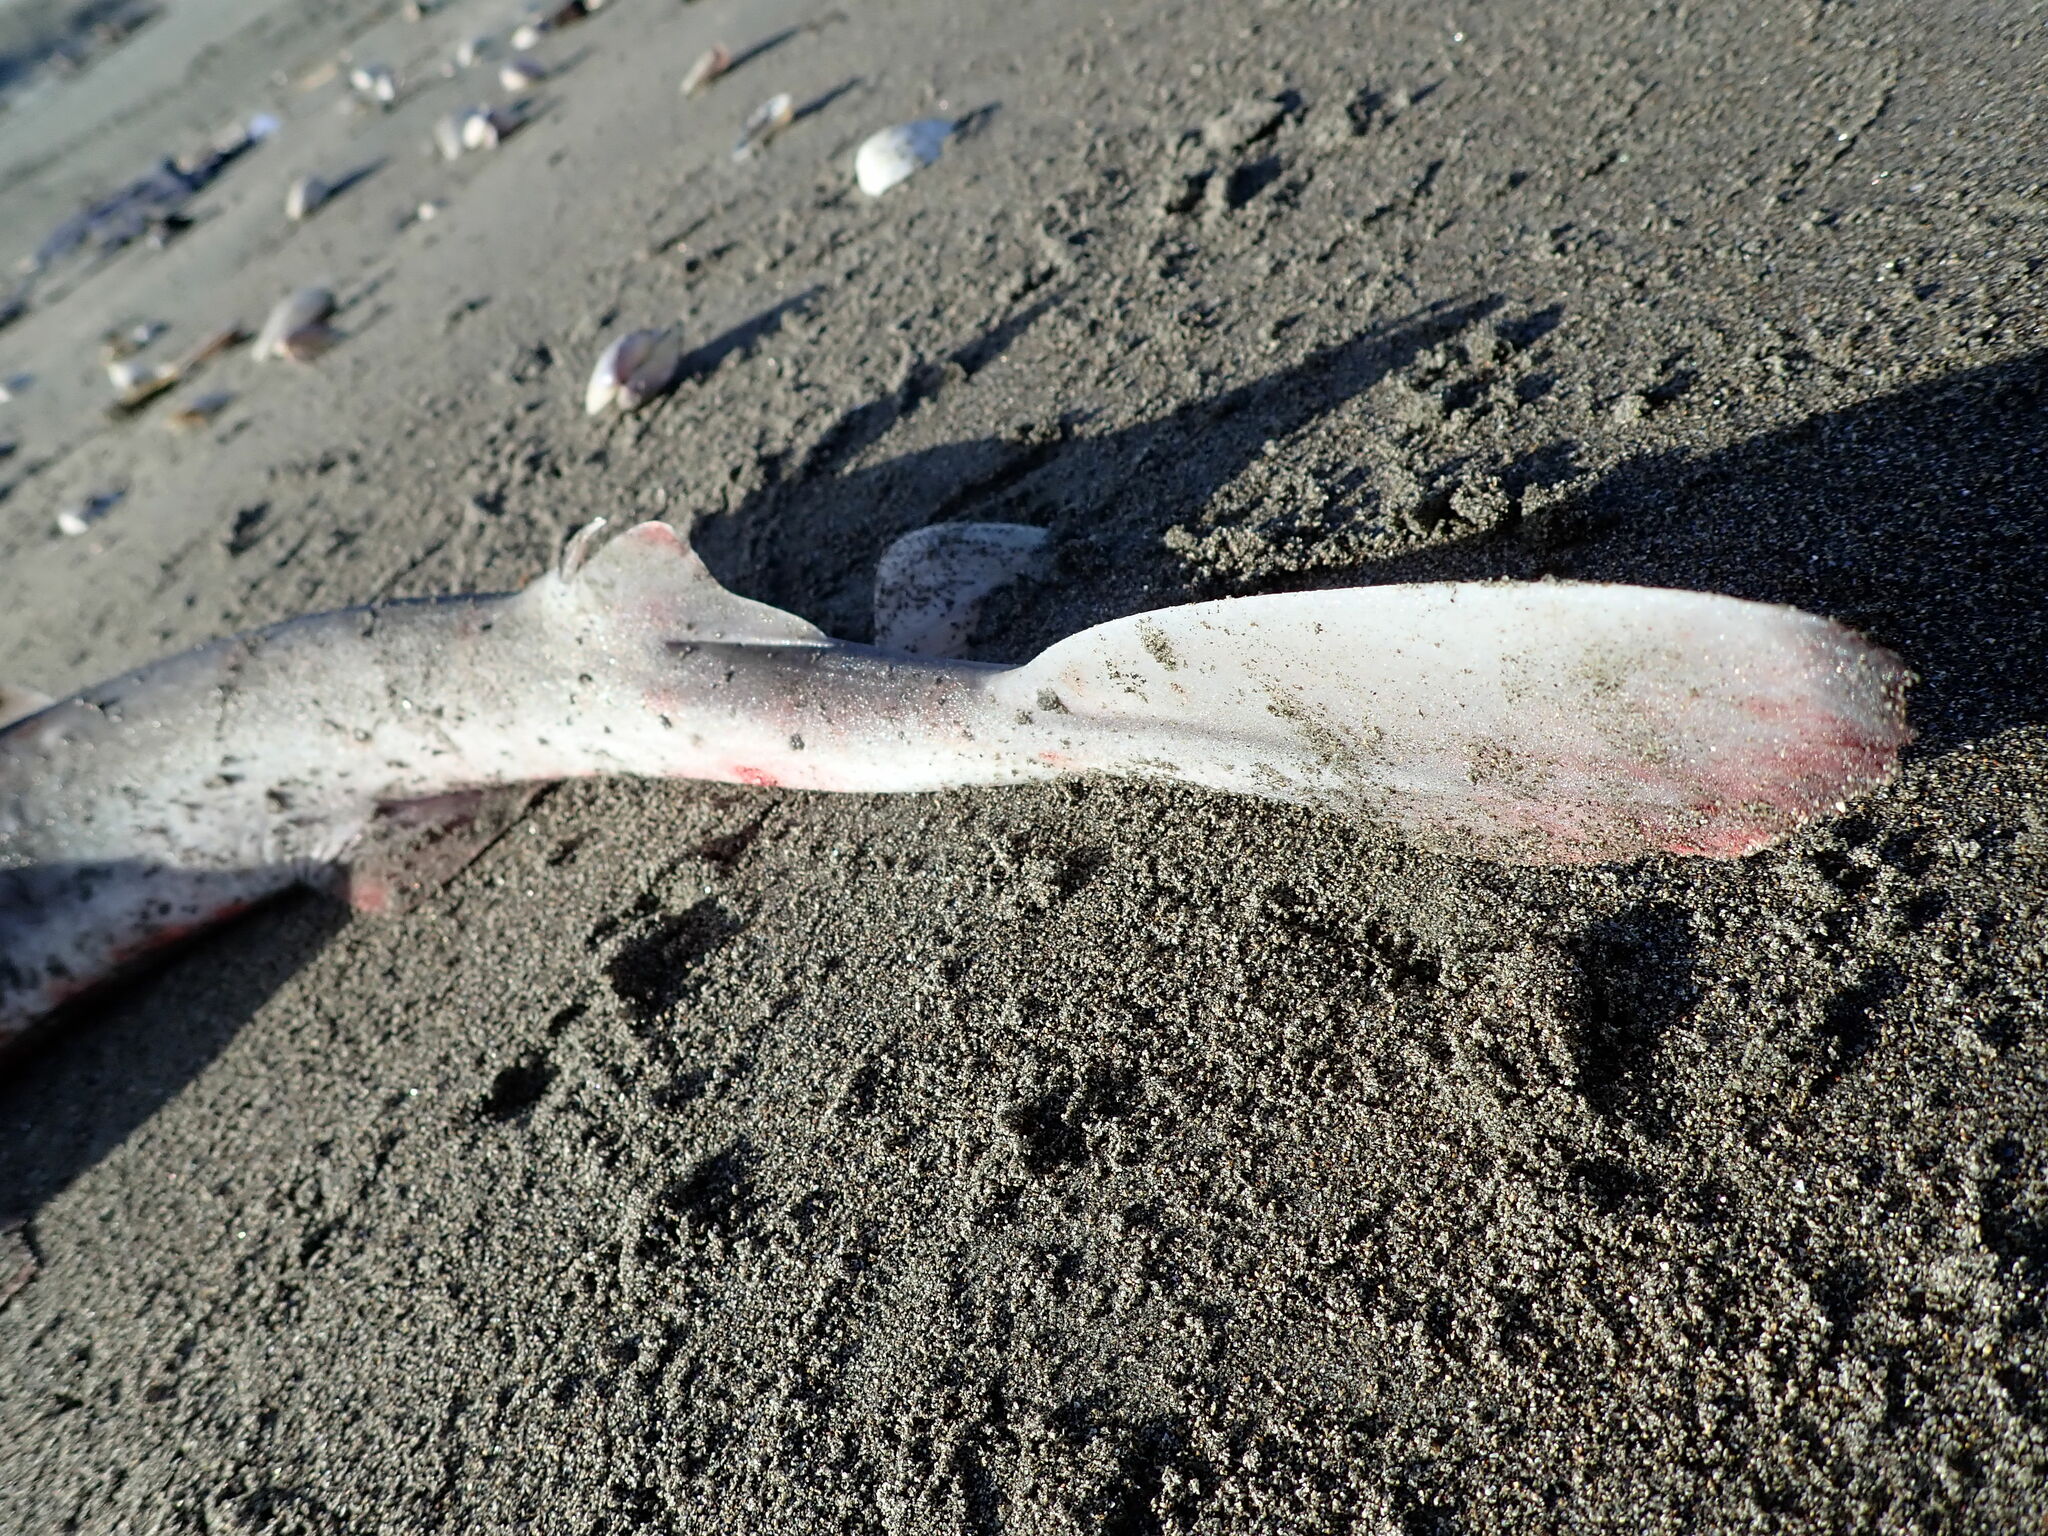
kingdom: Animalia
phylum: Chordata
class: Elasmobranchii
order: Squaliformes
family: Squalidae
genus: Squalus
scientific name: Squalus acanthias
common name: Spurdog
